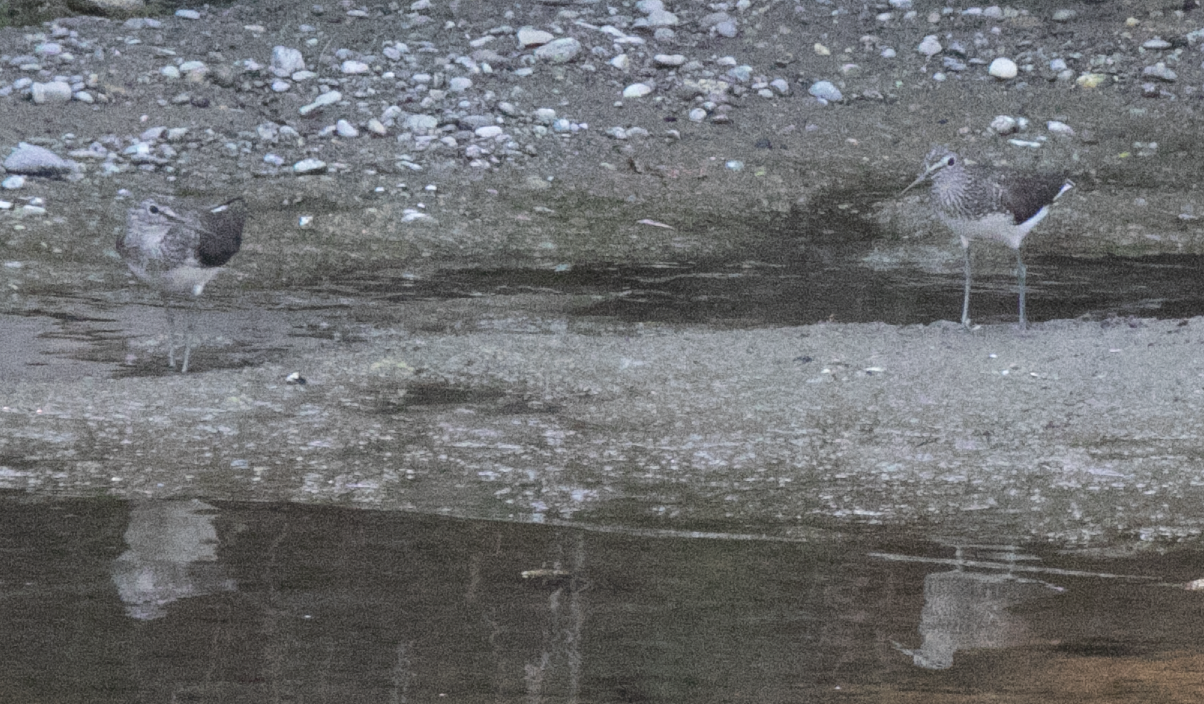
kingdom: Animalia
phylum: Chordata
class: Aves
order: Charadriiformes
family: Scolopacidae
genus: Tringa
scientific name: Tringa ochropus
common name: Green sandpiper
